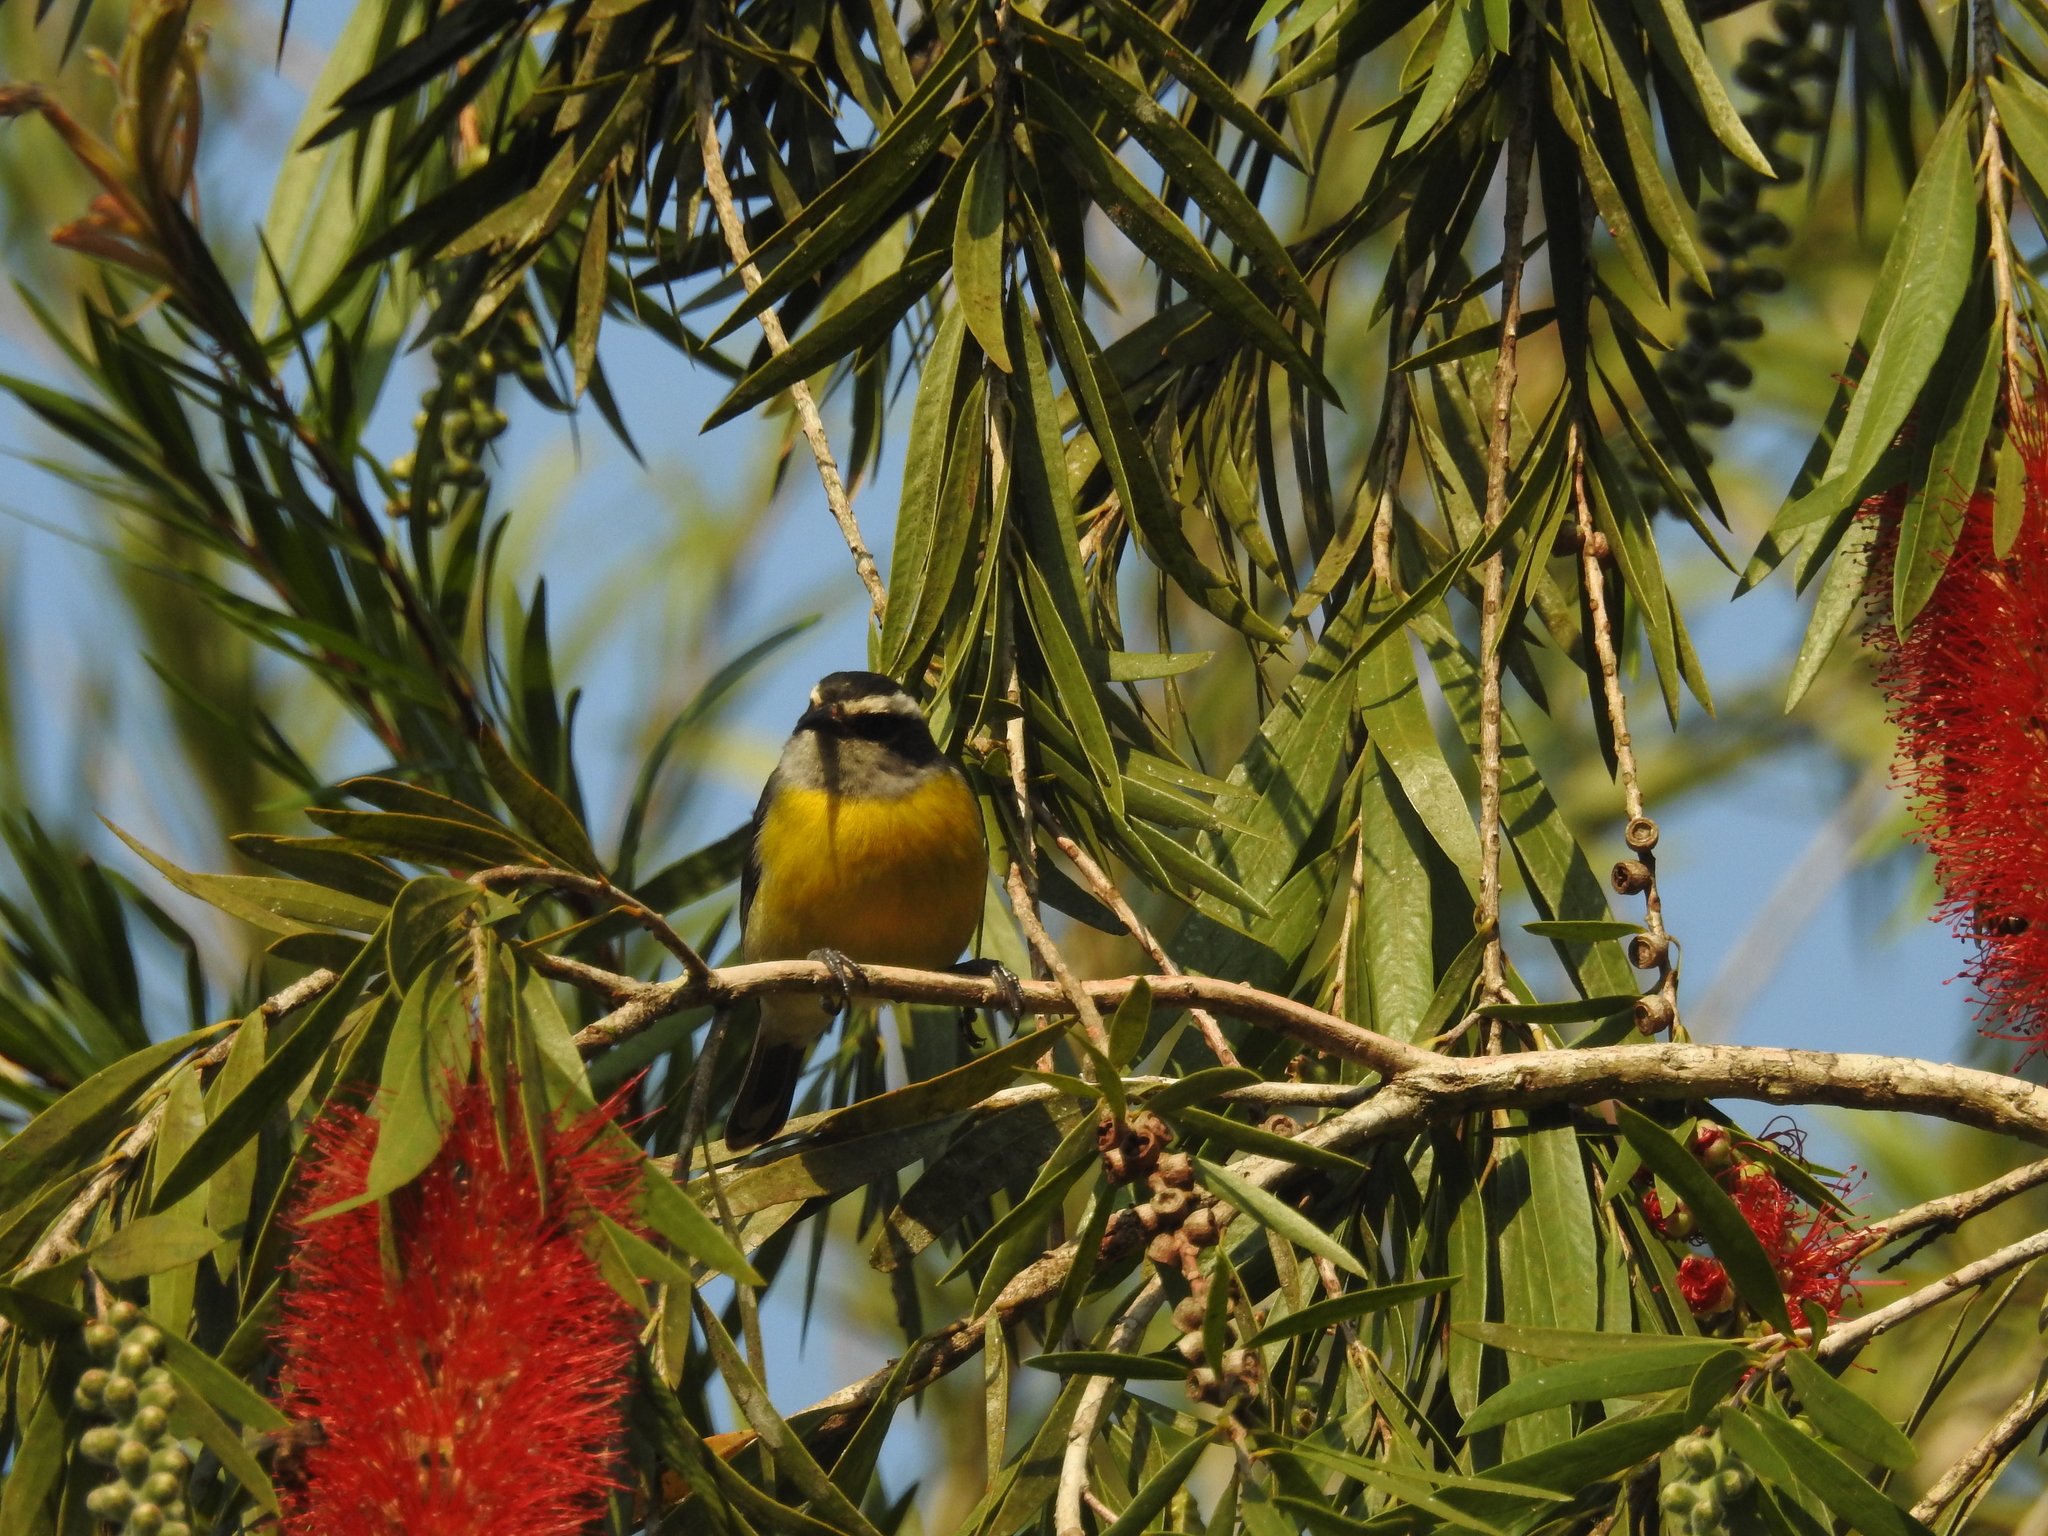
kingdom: Animalia
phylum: Chordata
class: Aves
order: Passeriformes
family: Thraupidae
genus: Coereba
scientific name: Coereba flaveola
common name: Bananaquit
